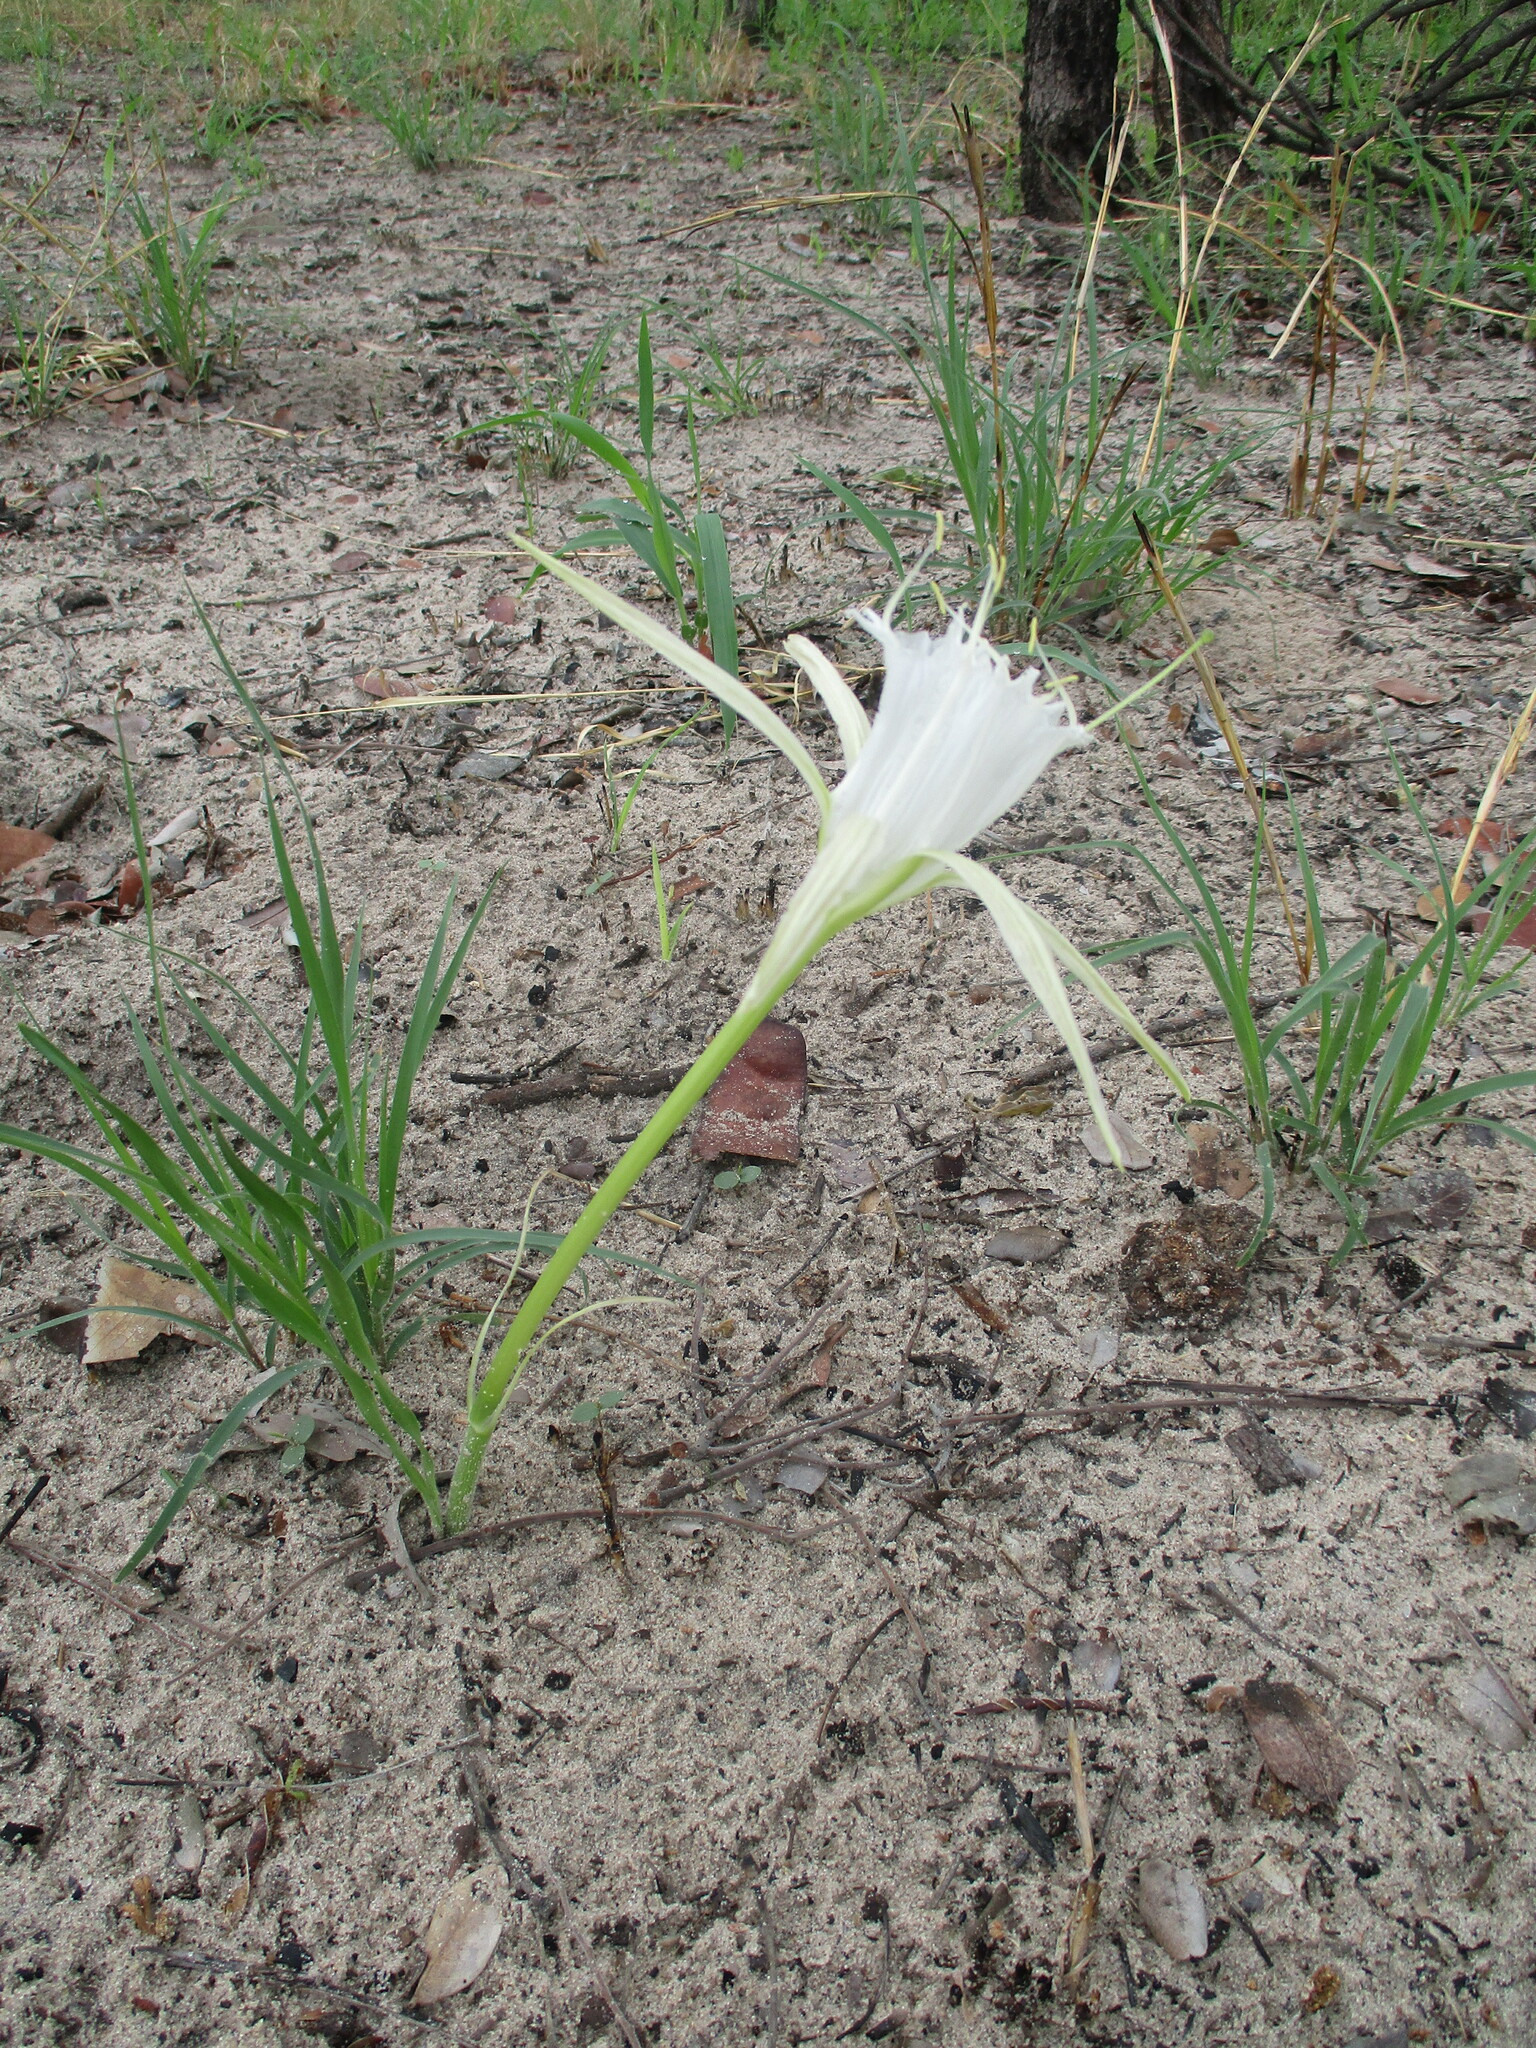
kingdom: Plantae
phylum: Tracheophyta
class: Liliopsida
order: Asparagales
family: Amaryllidaceae
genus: Pancratium
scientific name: Pancratium tenuifolium
